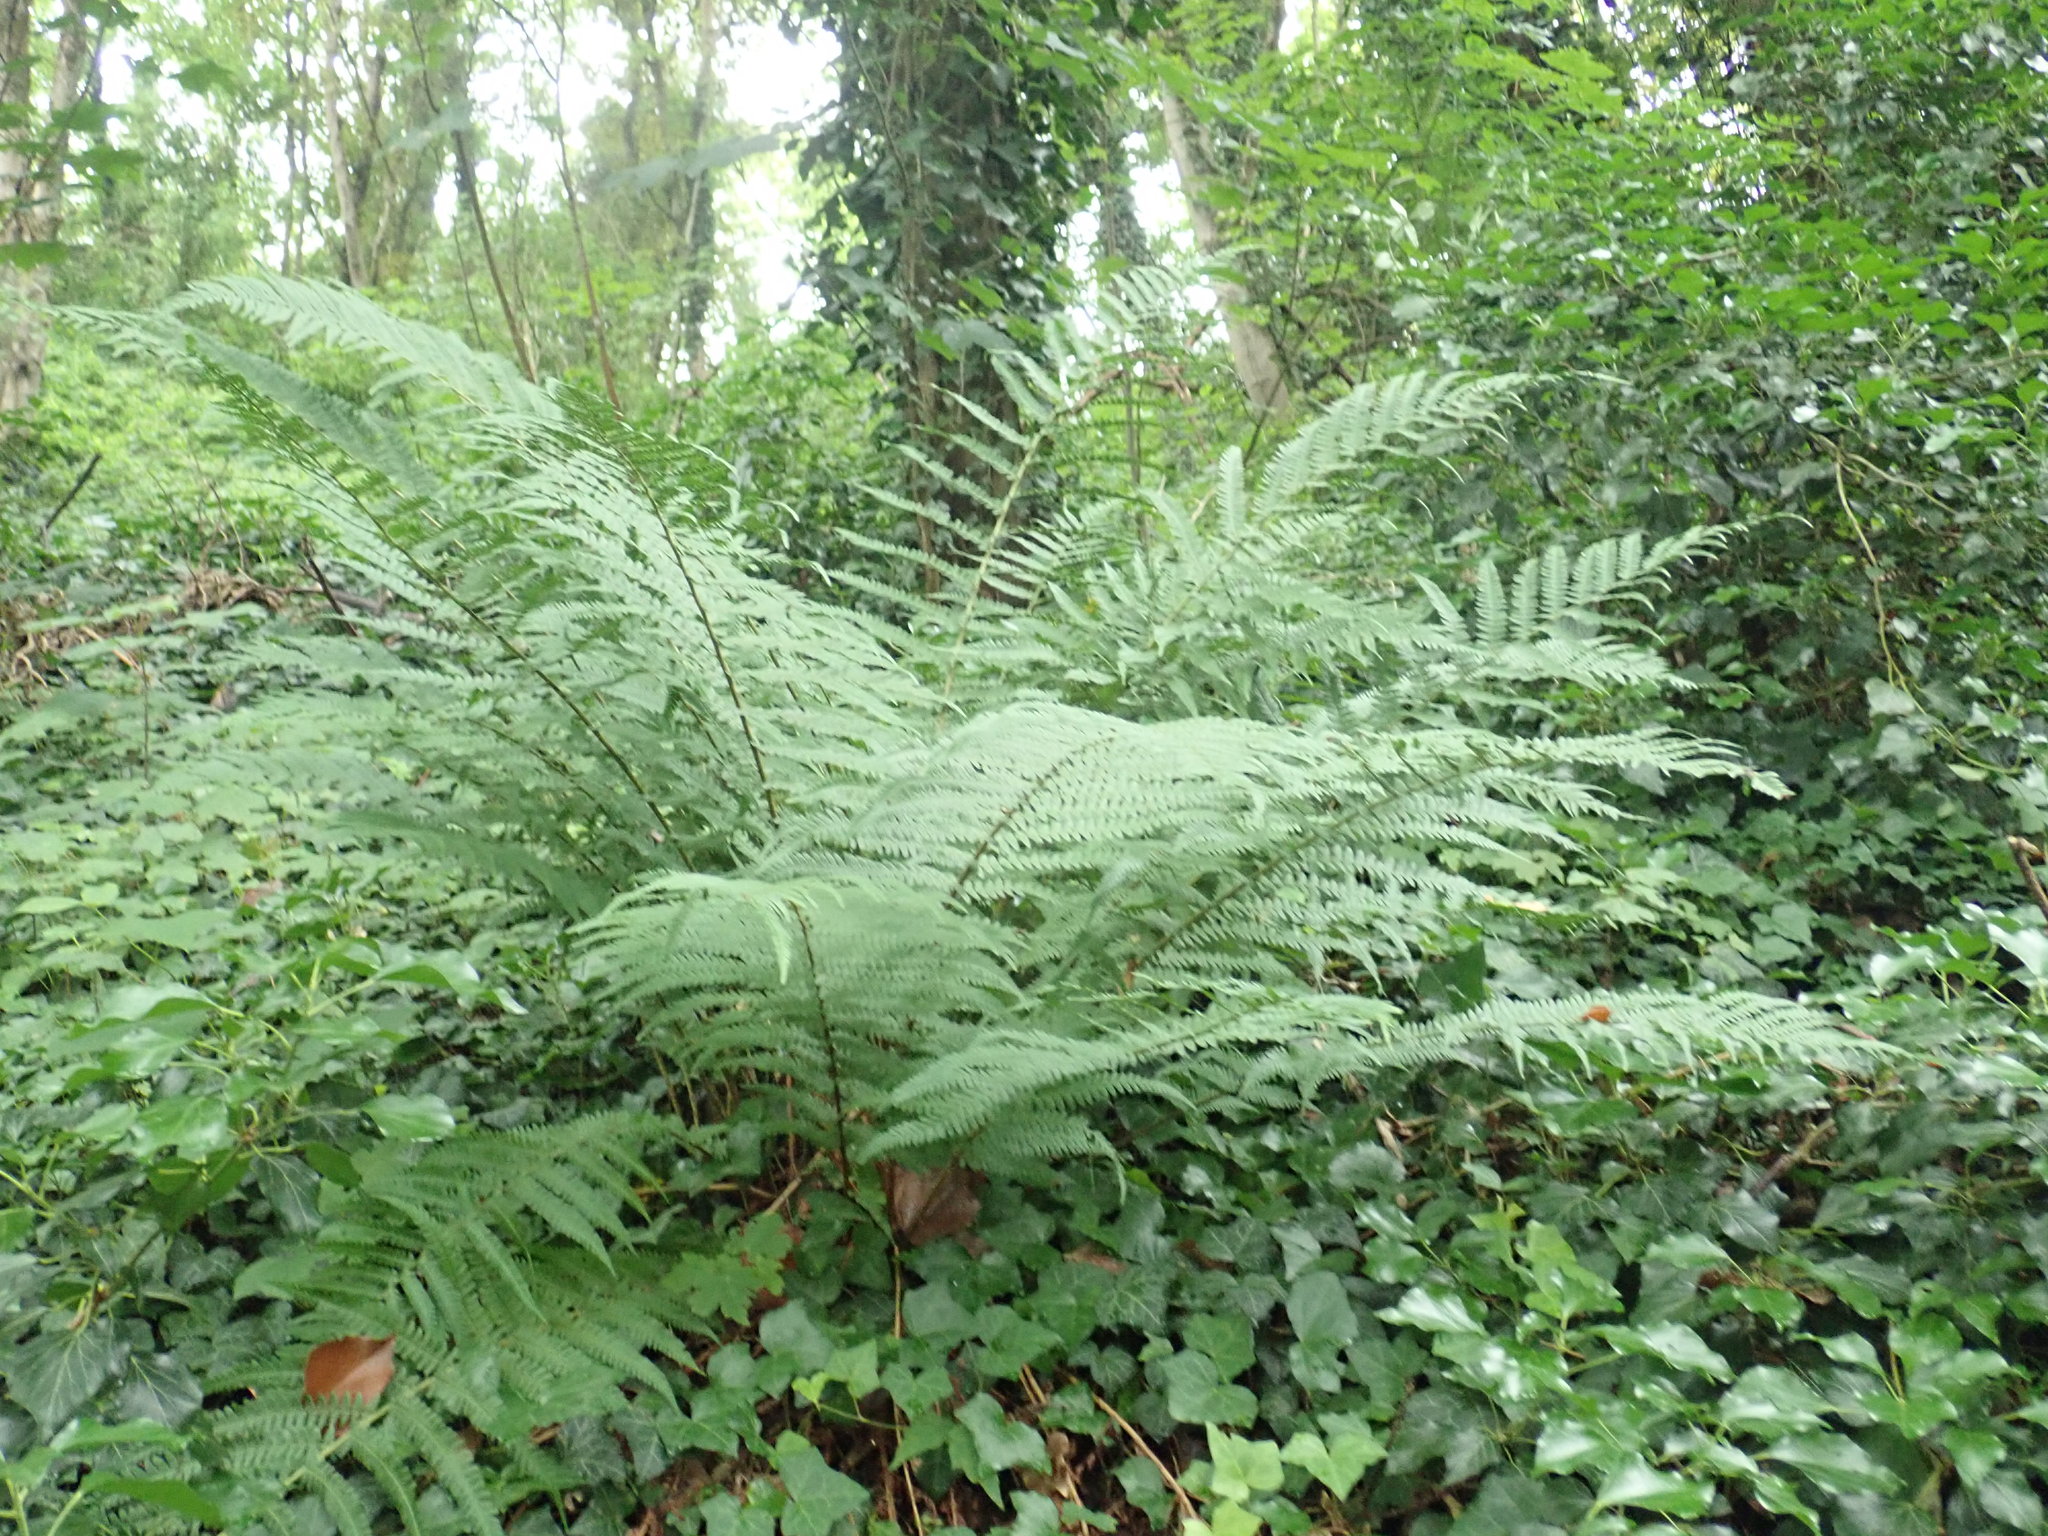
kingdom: Plantae
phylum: Tracheophyta
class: Polypodiopsida
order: Polypodiales
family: Dryopteridaceae
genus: Dryopteris
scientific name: Dryopteris filix-mas
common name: Male fern
